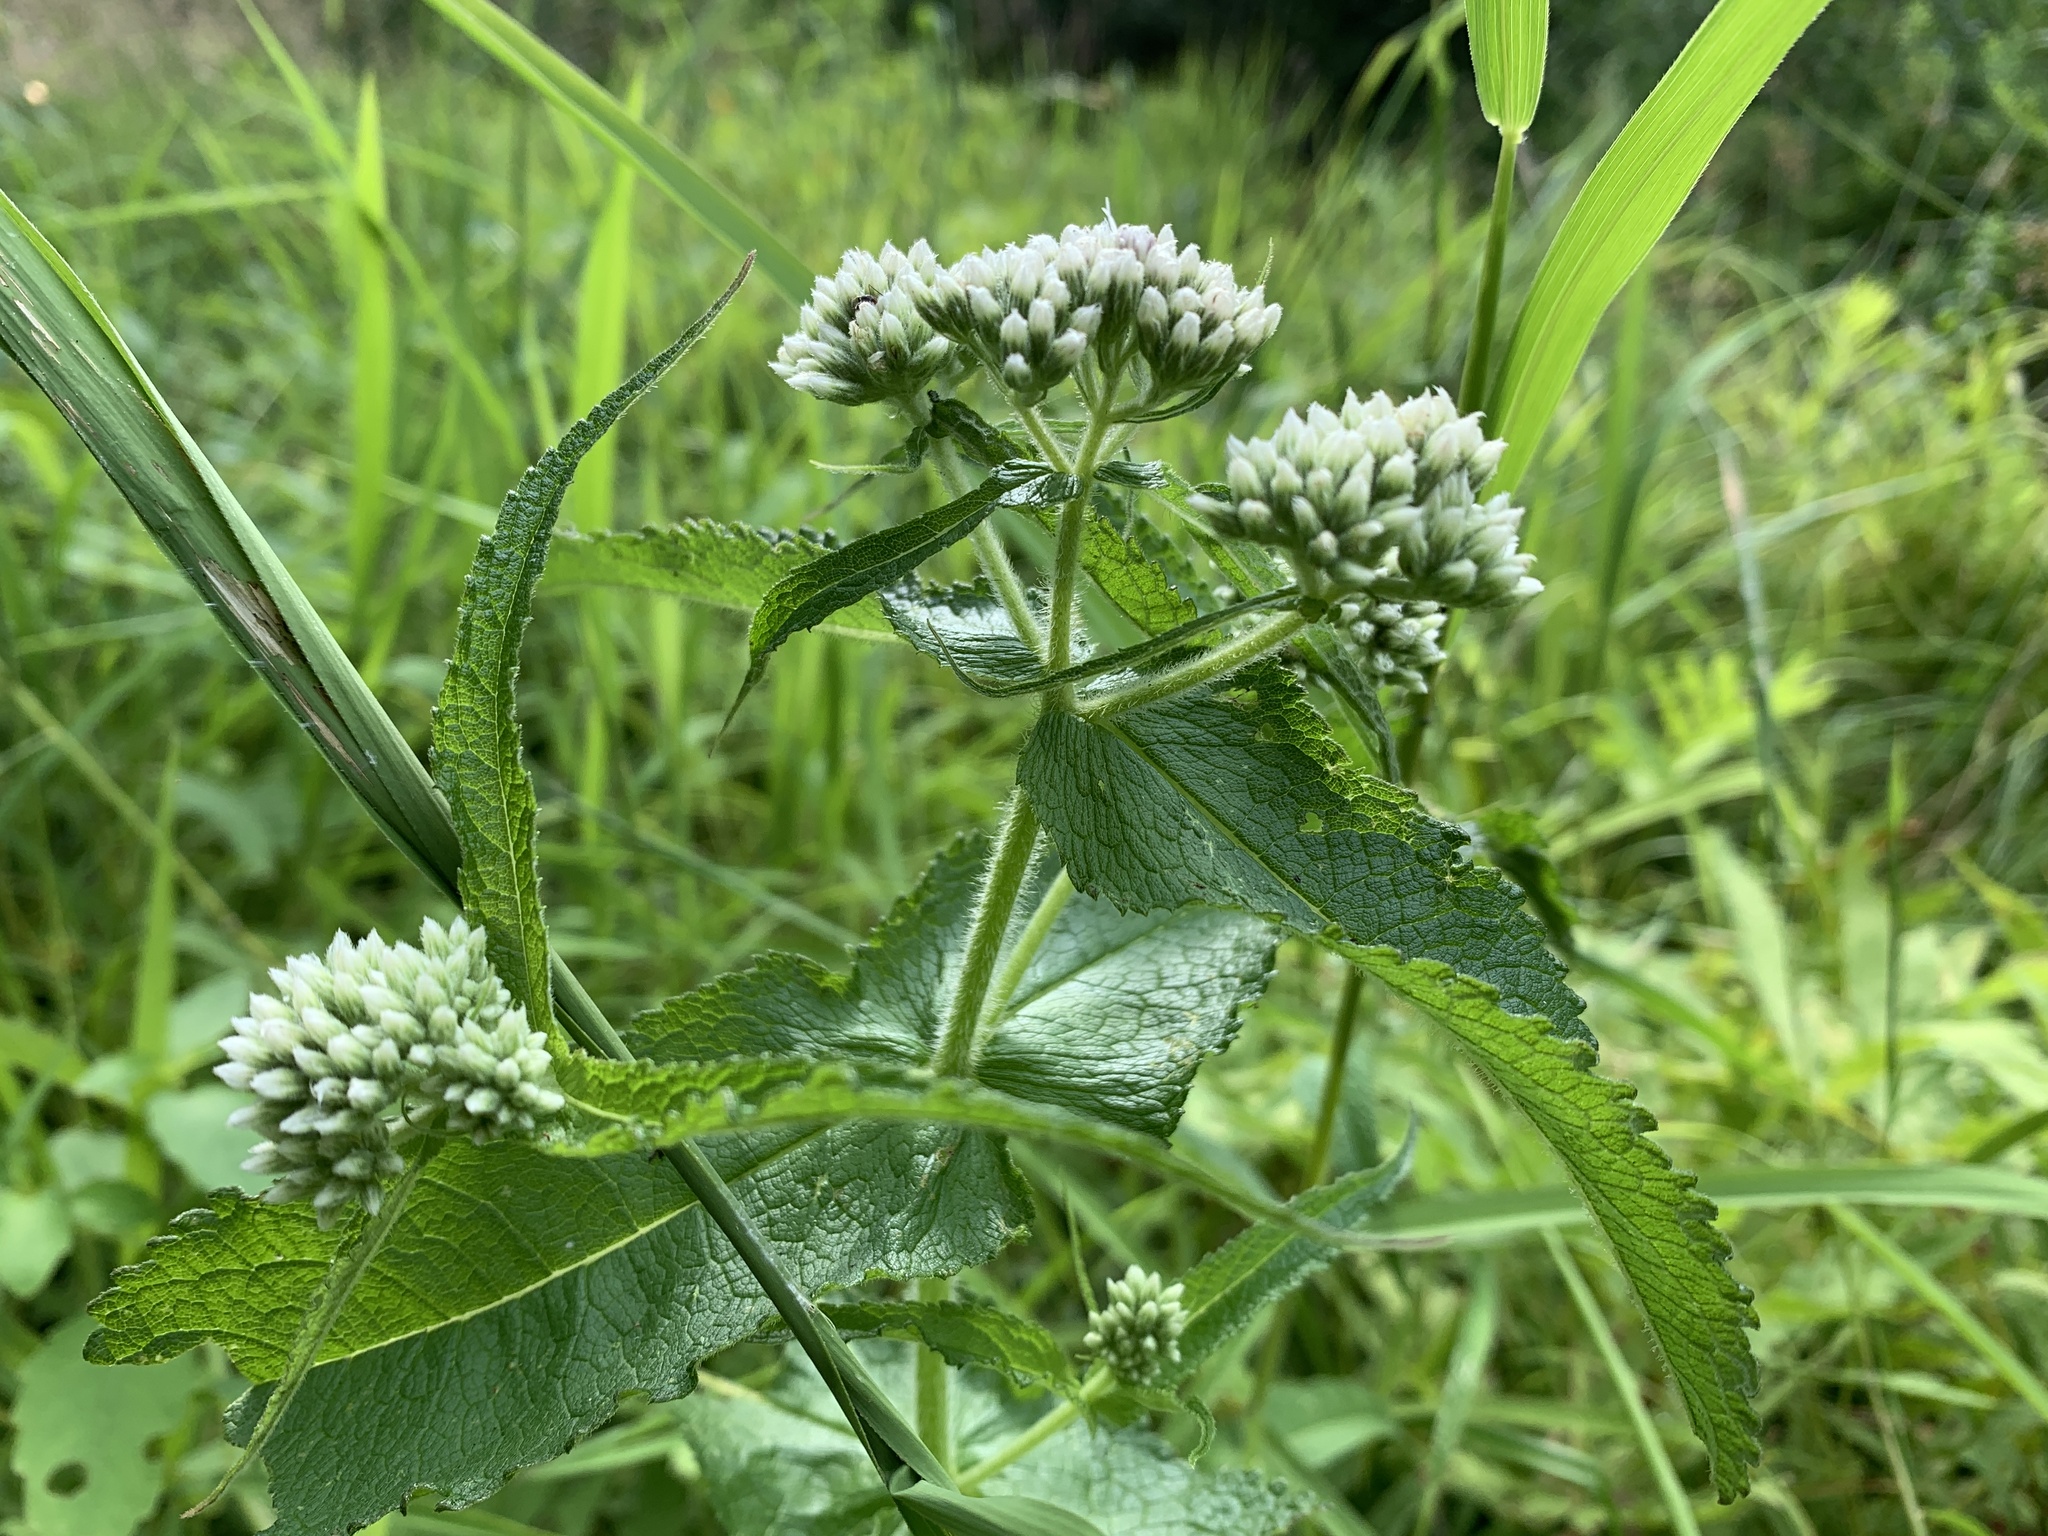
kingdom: Plantae
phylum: Tracheophyta
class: Magnoliopsida
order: Asterales
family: Asteraceae
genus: Eupatorium
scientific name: Eupatorium perfoliatum
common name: Boneset
